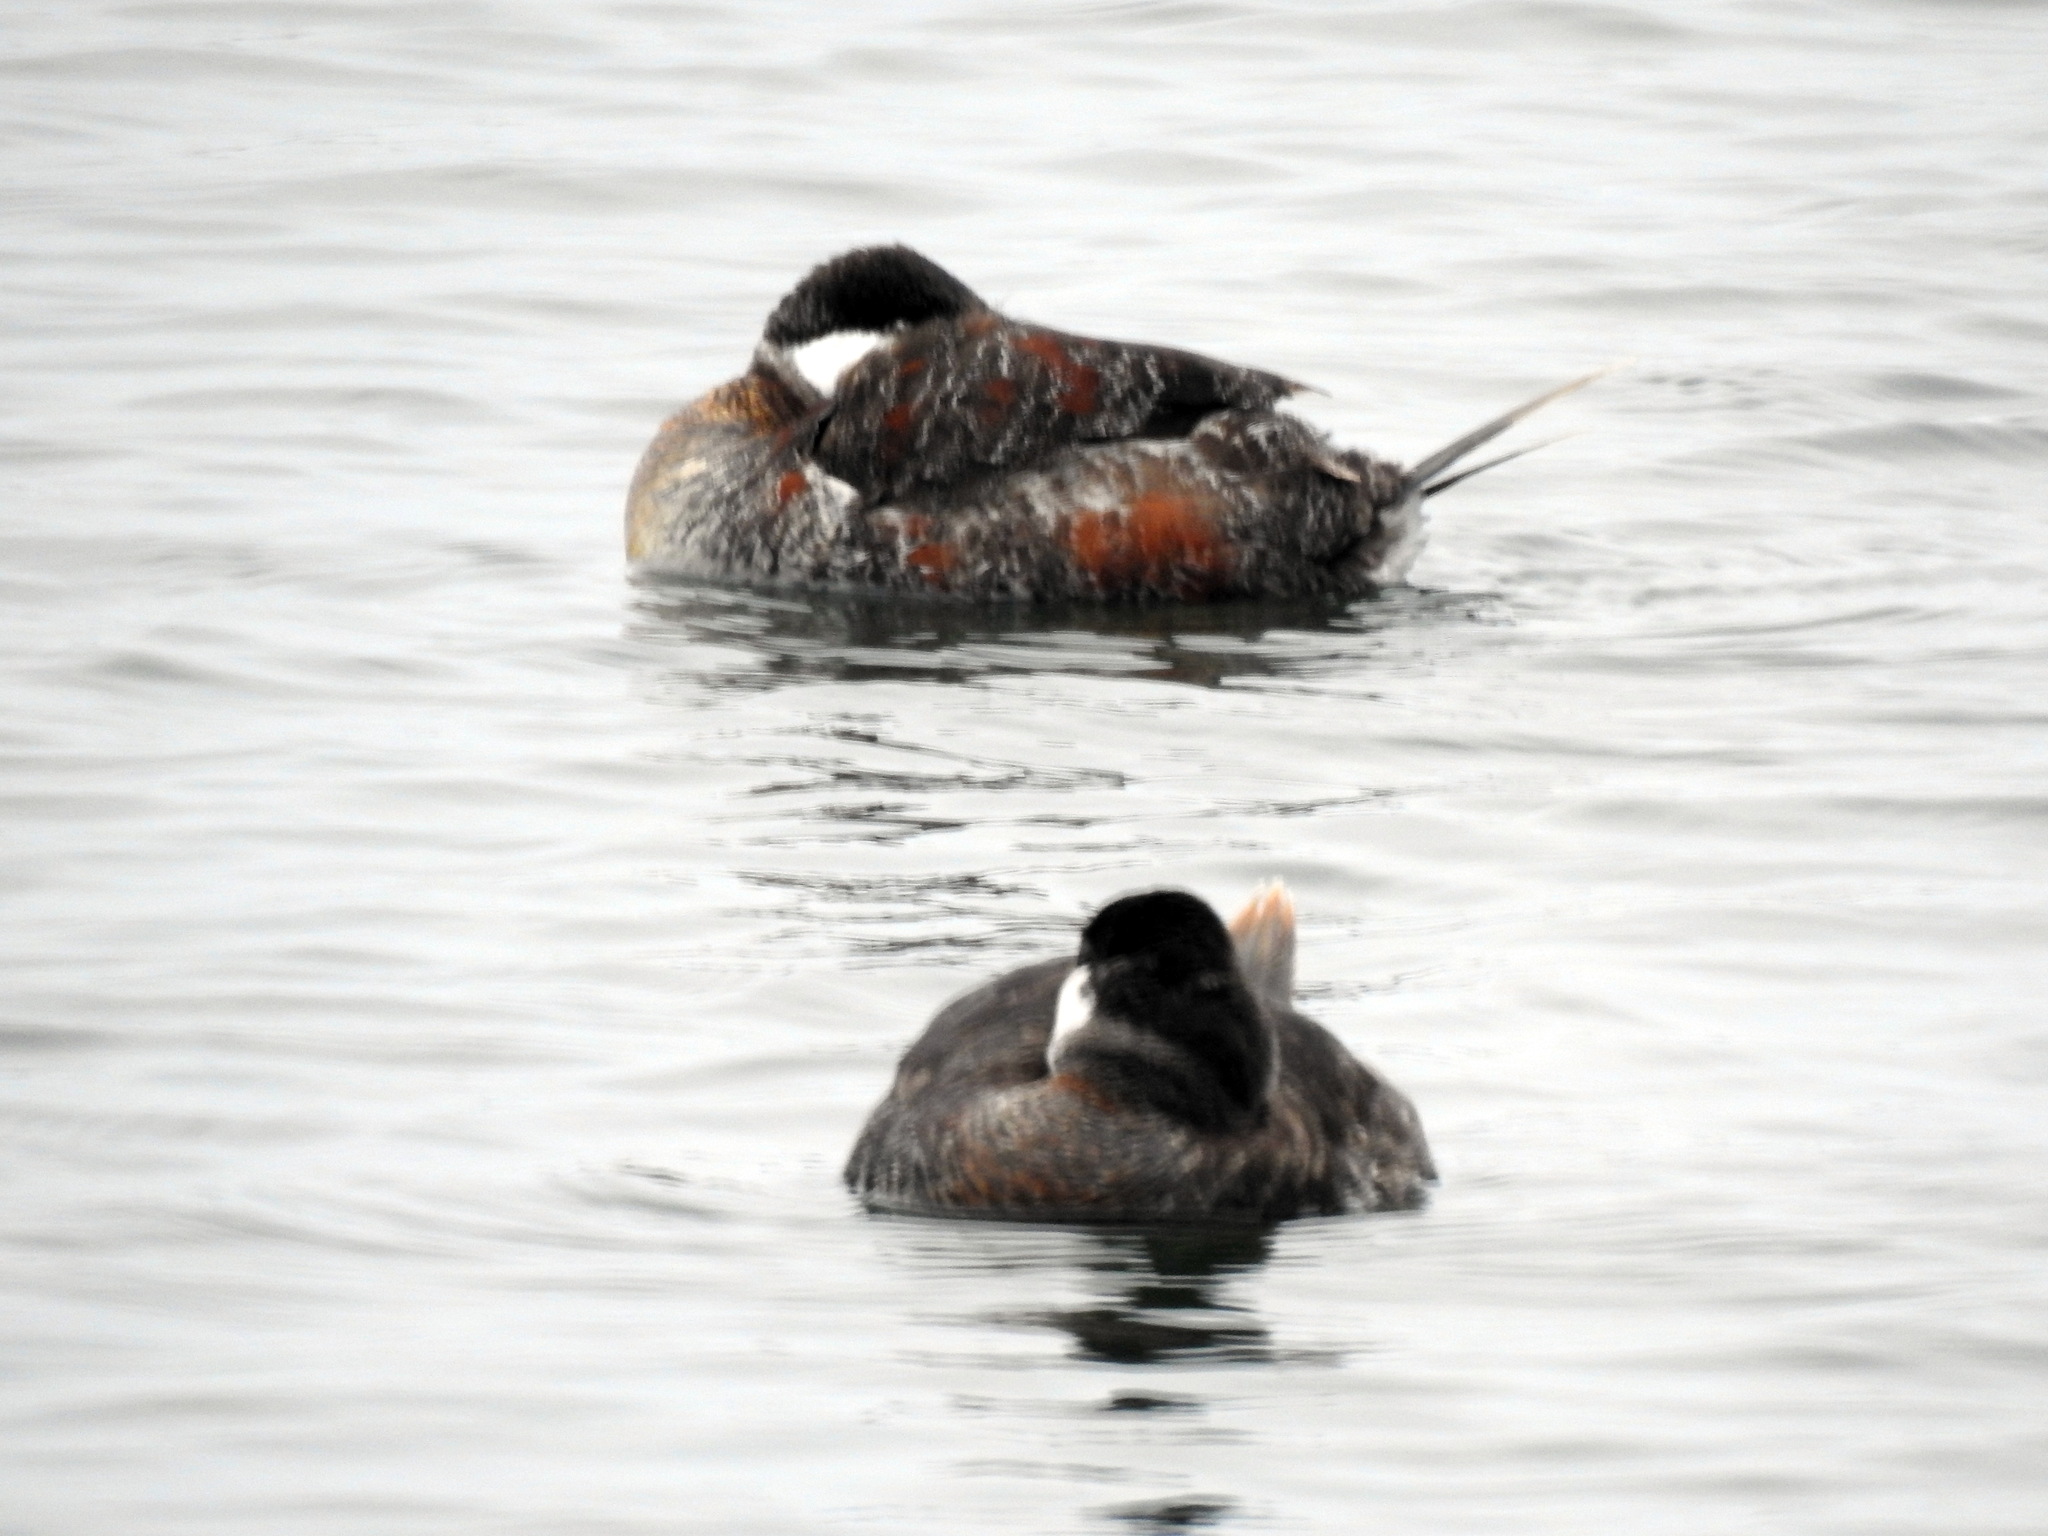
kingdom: Animalia
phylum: Chordata
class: Aves
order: Anseriformes
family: Anatidae
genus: Oxyura
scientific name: Oxyura jamaicensis
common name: Ruddy duck
